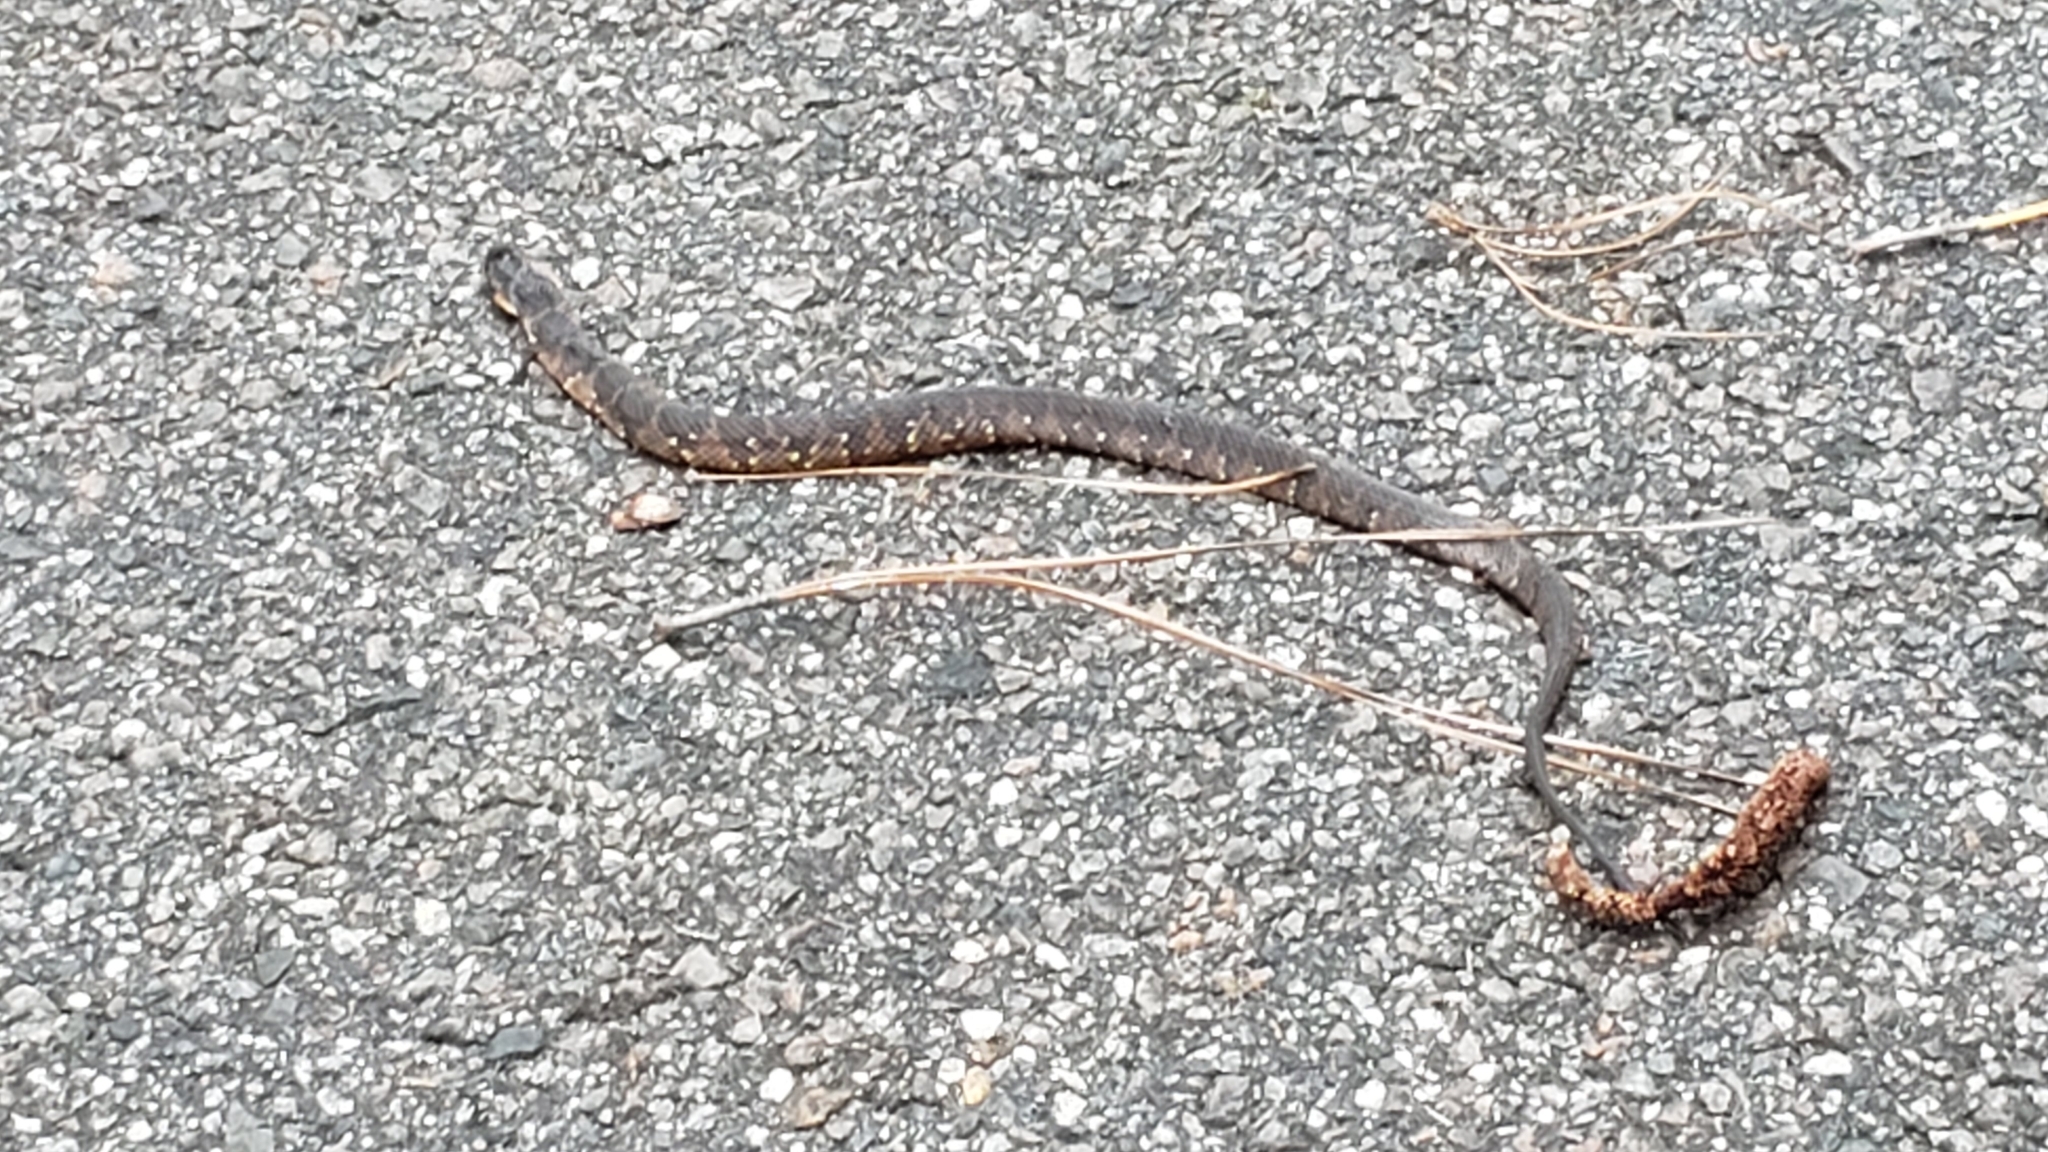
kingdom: Animalia
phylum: Chordata
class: Squamata
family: Colubridae
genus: Nerodia
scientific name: Nerodia fasciata
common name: Southern water snake
